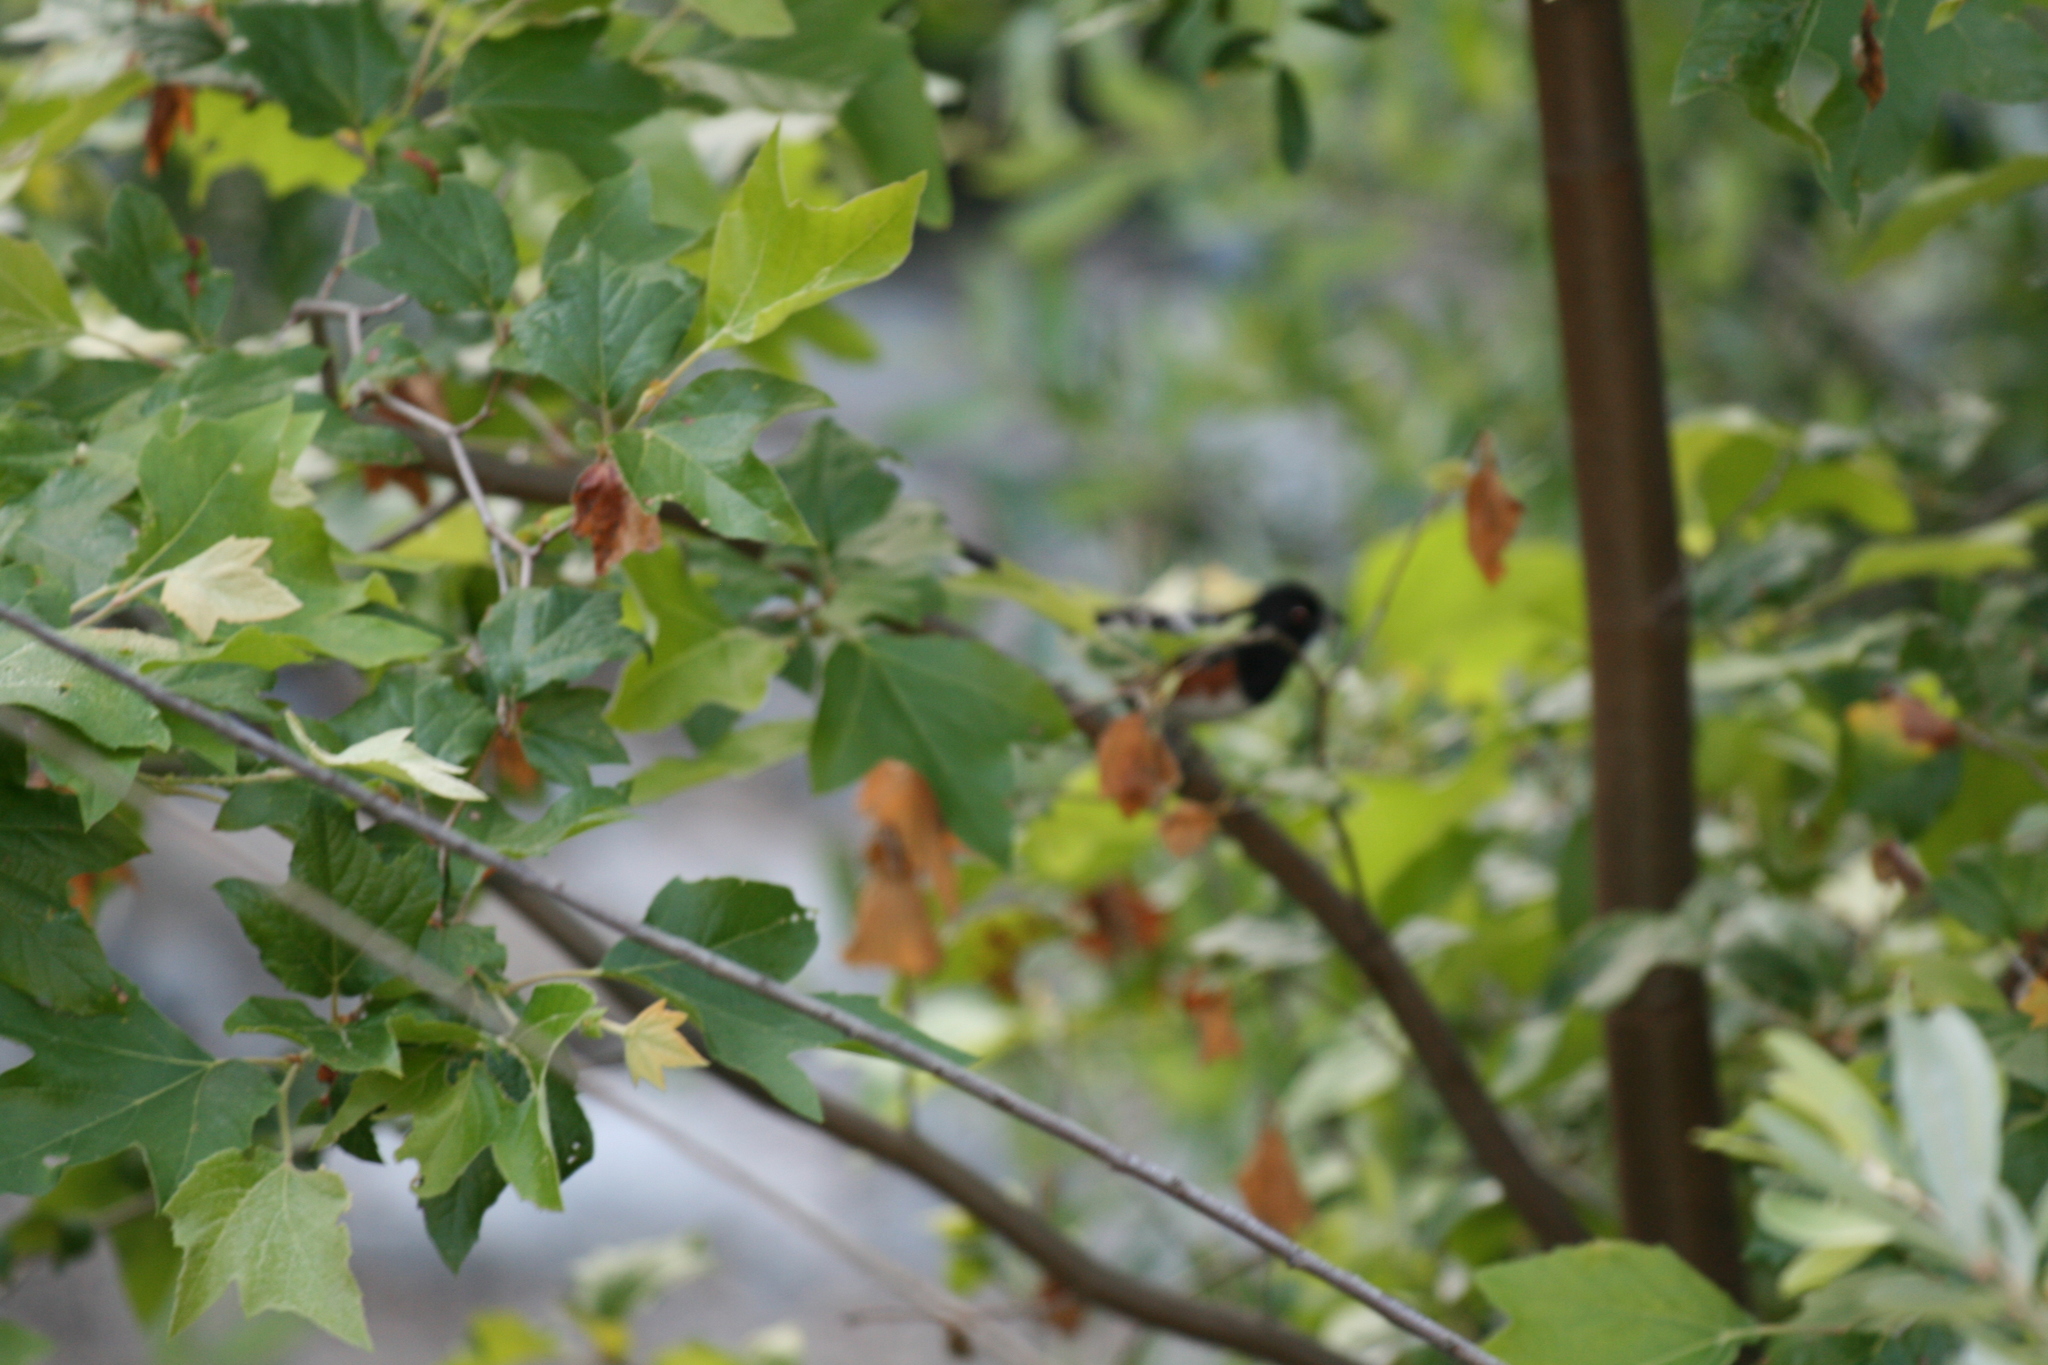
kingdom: Animalia
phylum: Chordata
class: Aves
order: Passeriformes
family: Passerellidae
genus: Pipilo
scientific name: Pipilo maculatus
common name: Spotted towhee
